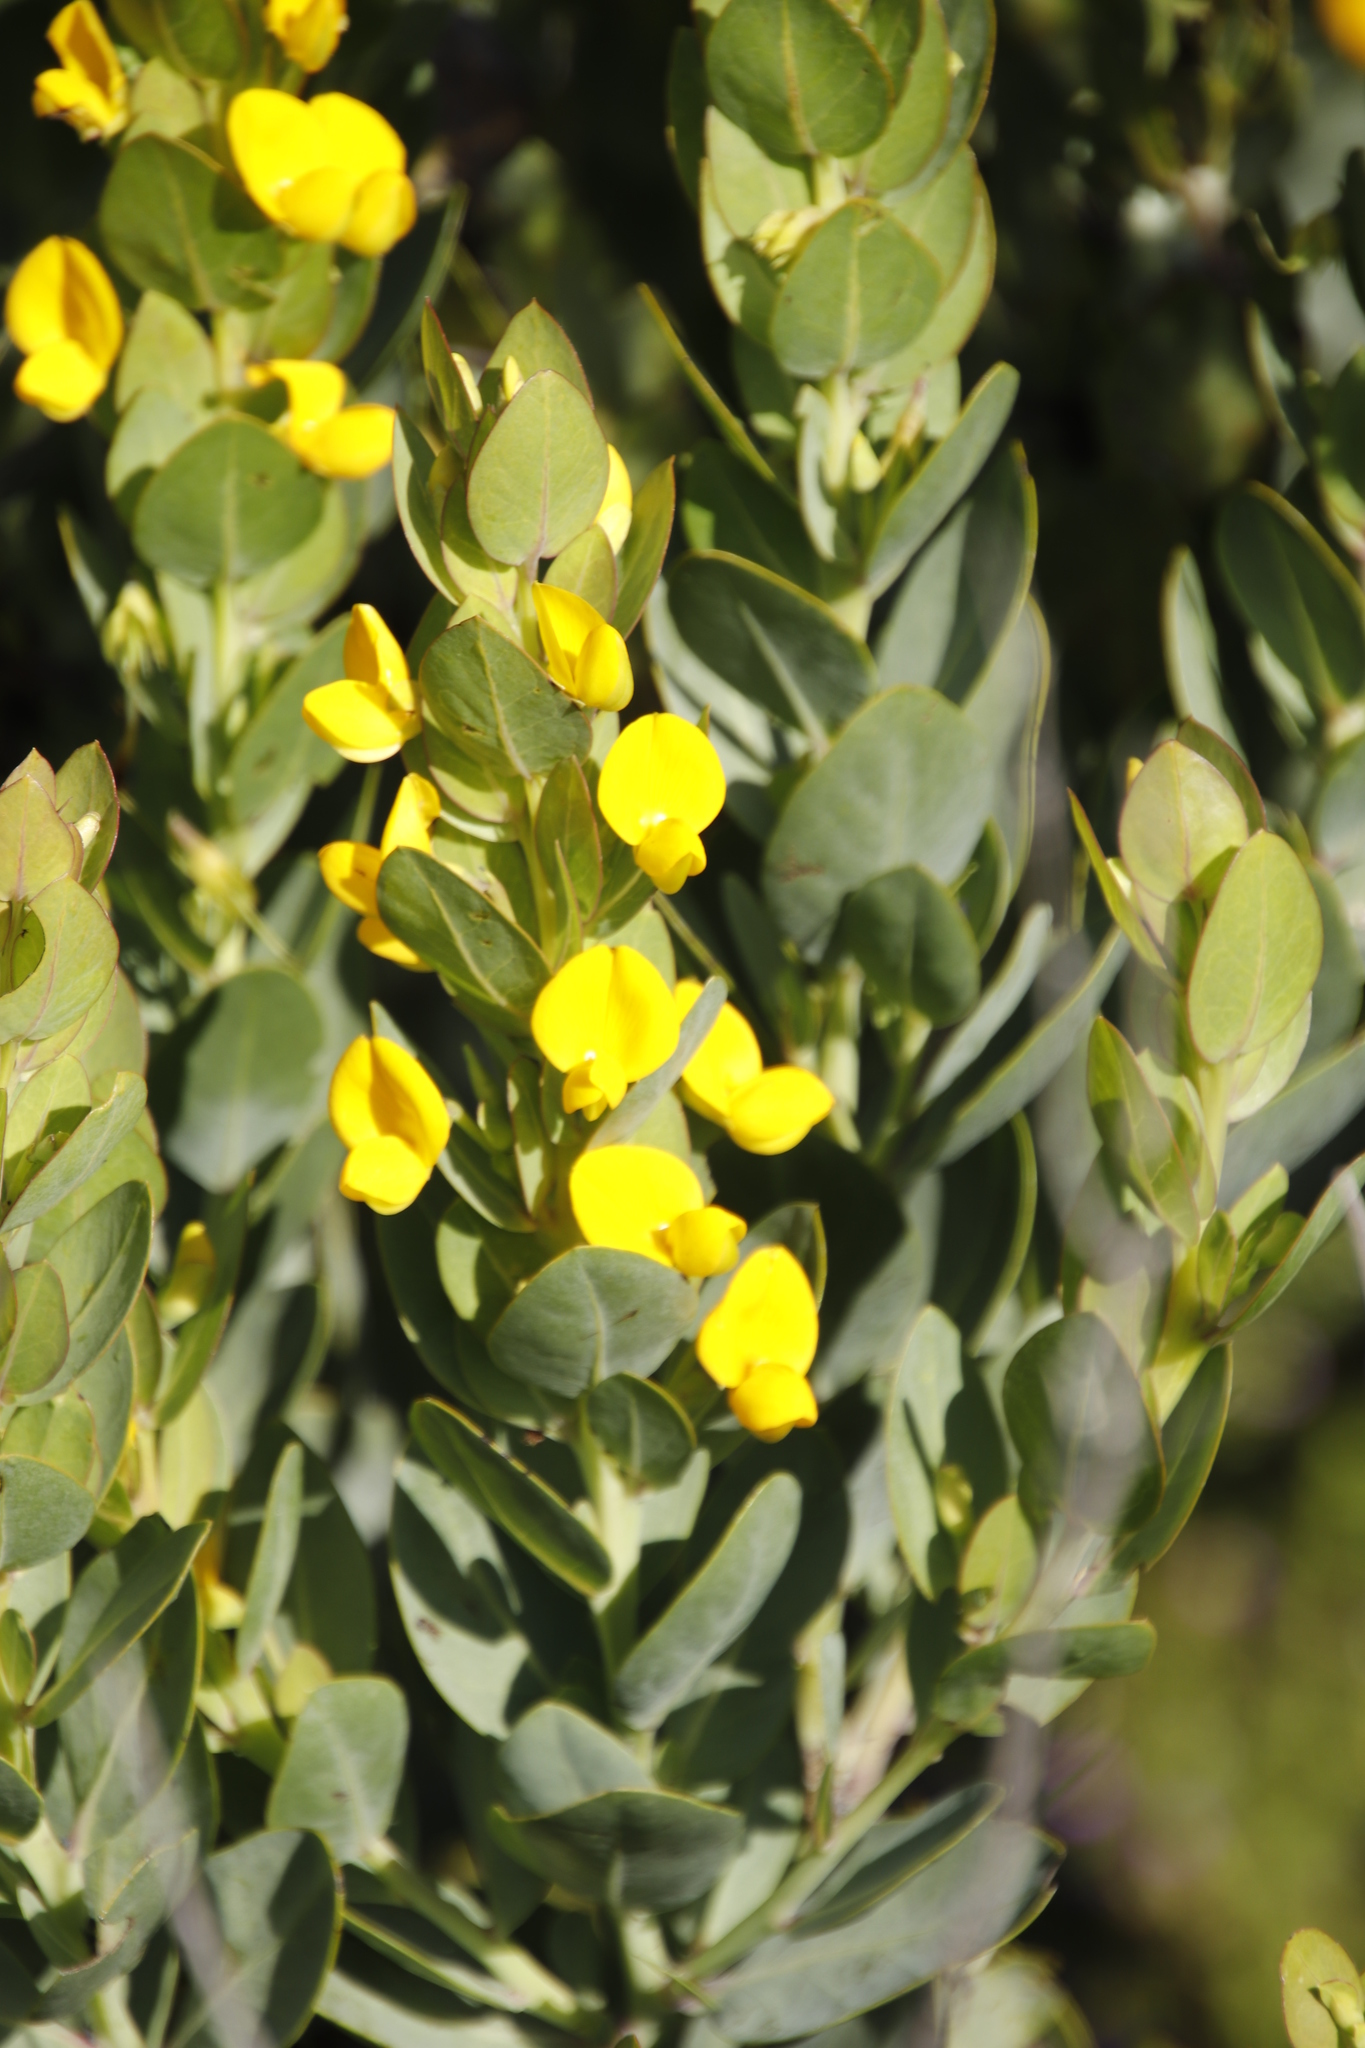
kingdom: Plantae
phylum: Tracheophyta
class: Magnoliopsida
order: Fabales
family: Fabaceae
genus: Rafnia
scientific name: Rafnia triflora
